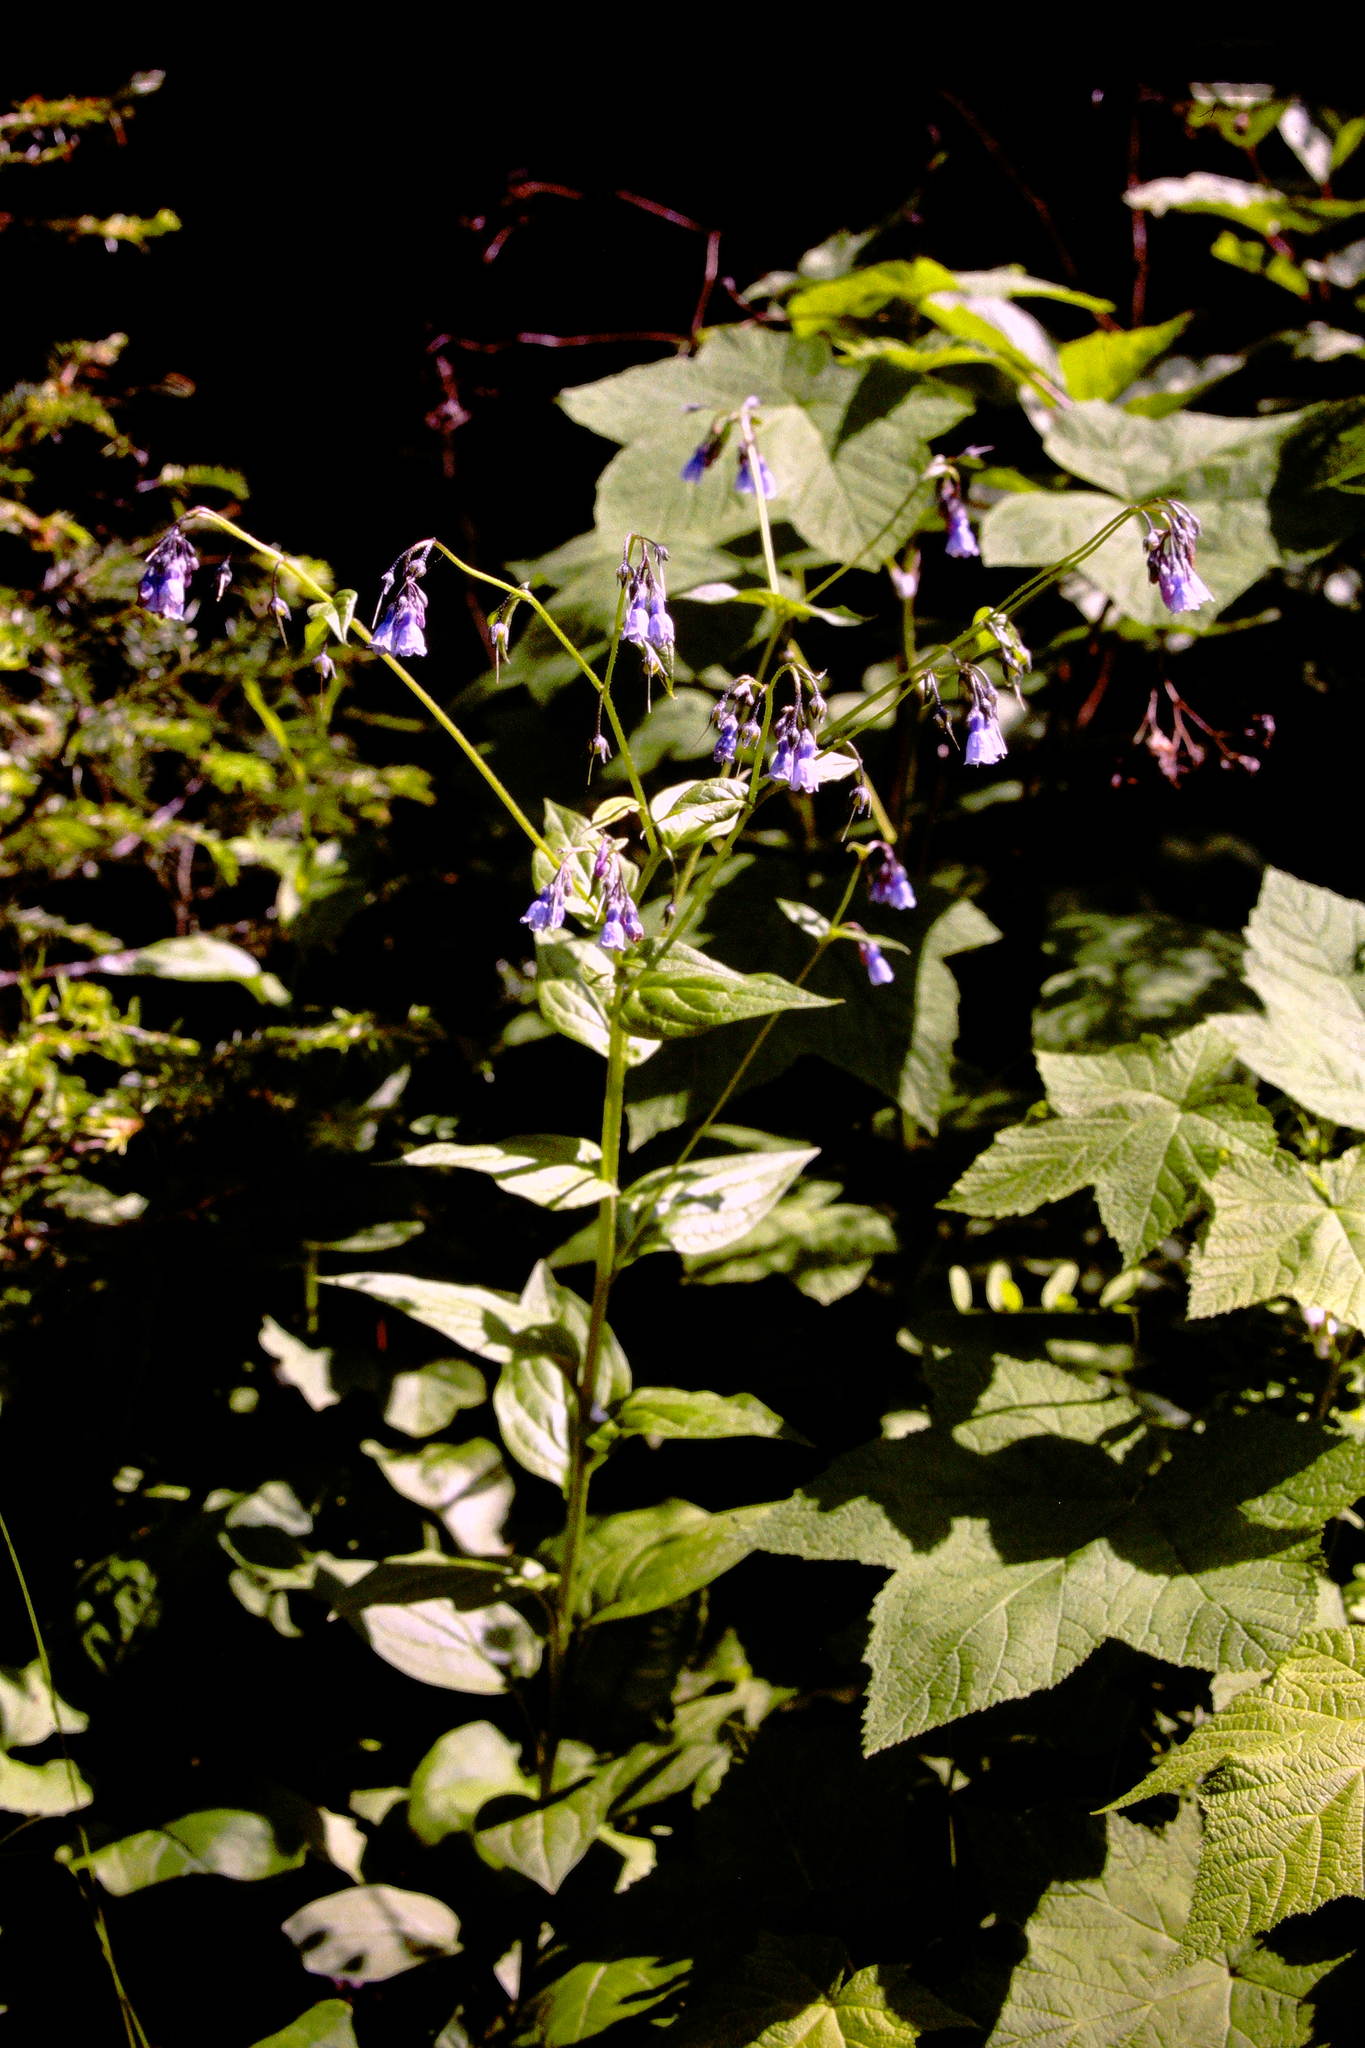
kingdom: Plantae
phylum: Tracheophyta
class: Magnoliopsida
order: Boraginales
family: Boraginaceae
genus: Mertensia
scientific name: Mertensia paniculata
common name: Panicled bluebells
